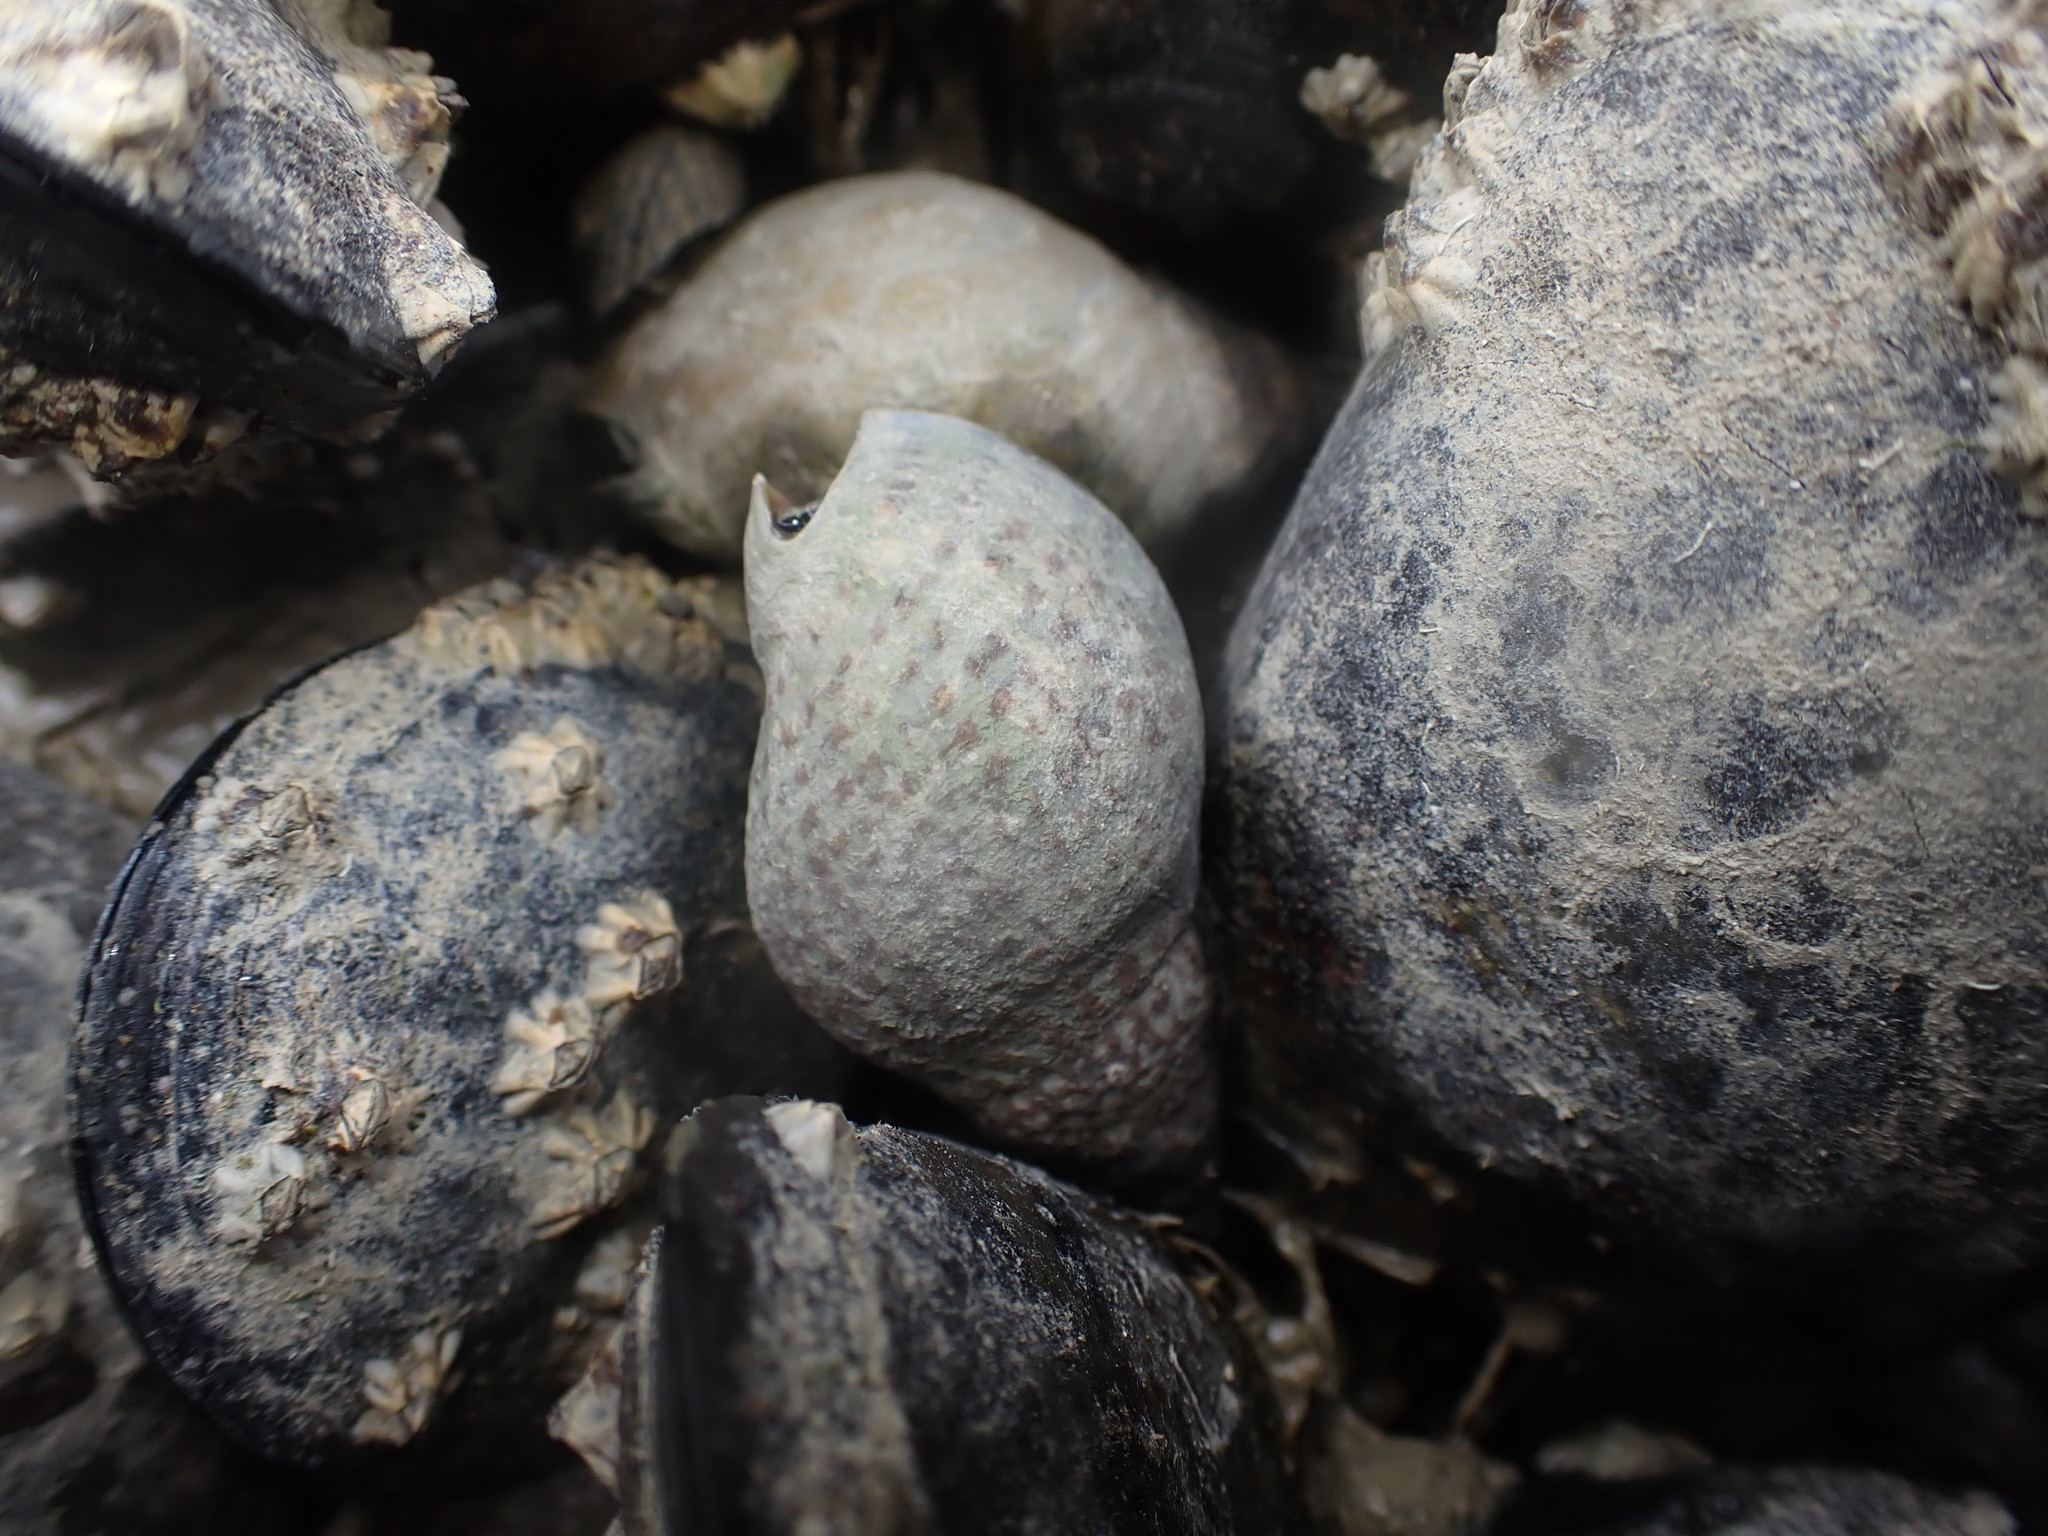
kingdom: Animalia
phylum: Mollusca
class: Gastropoda
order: Neogastropoda
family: Cominellidae
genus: Cominella
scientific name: Cominella maculosa
